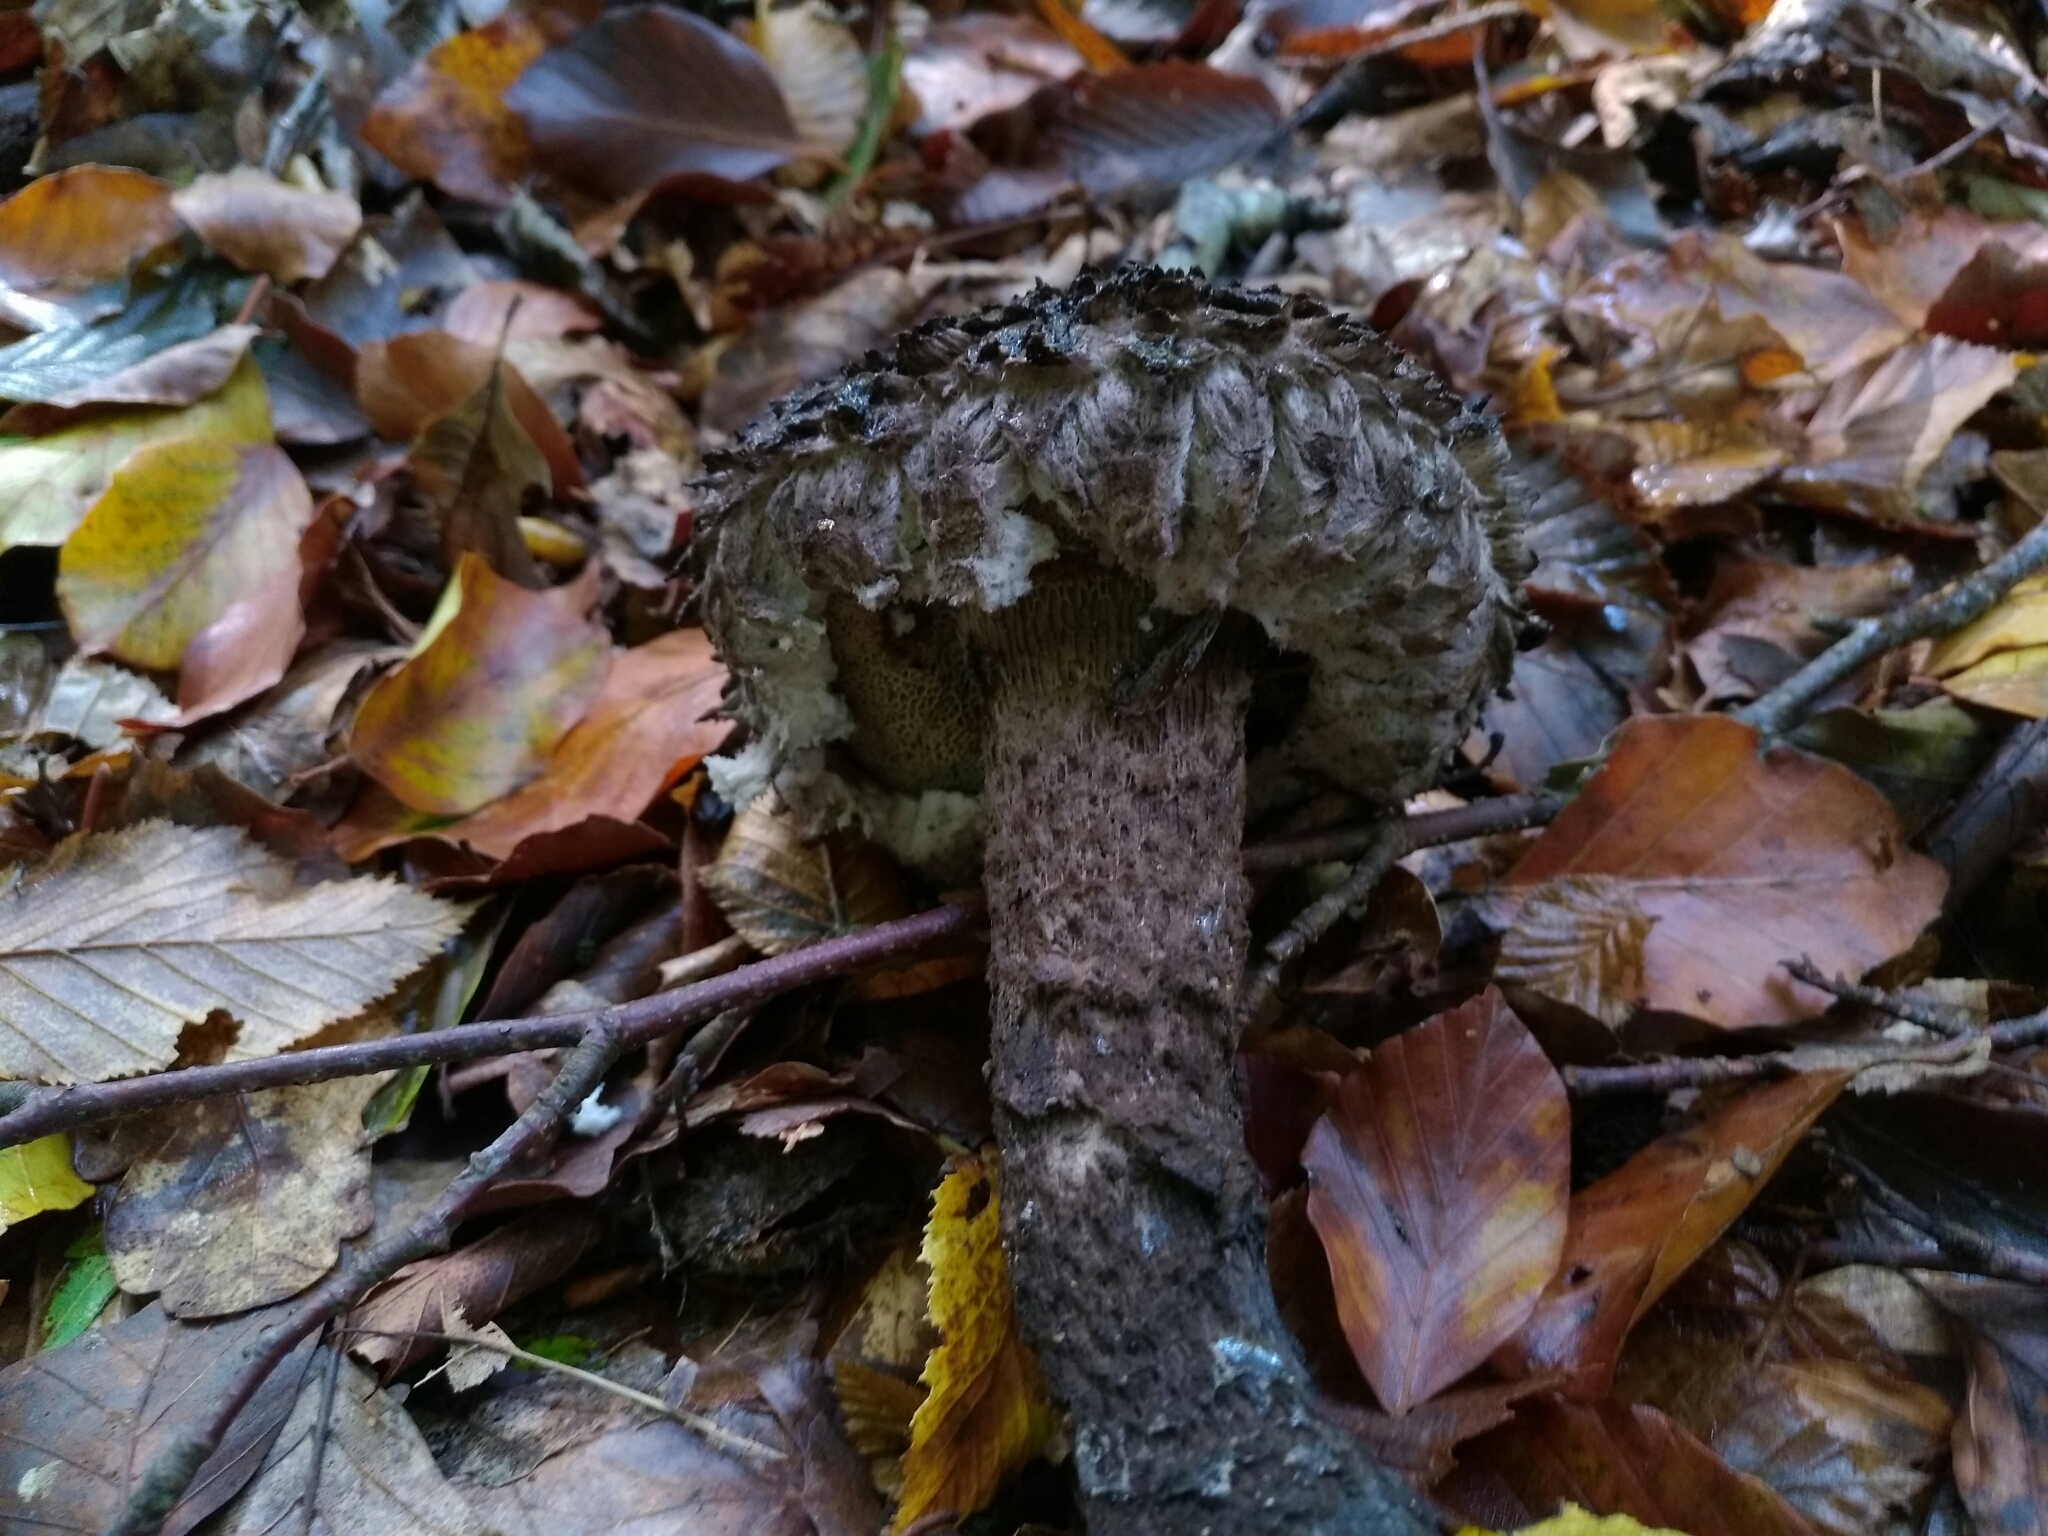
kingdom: Fungi
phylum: Basidiomycota
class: Agaricomycetes
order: Boletales
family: Boletaceae
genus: Strobilomyces
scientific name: Strobilomyces strobilaceus
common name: Old man of the woods
